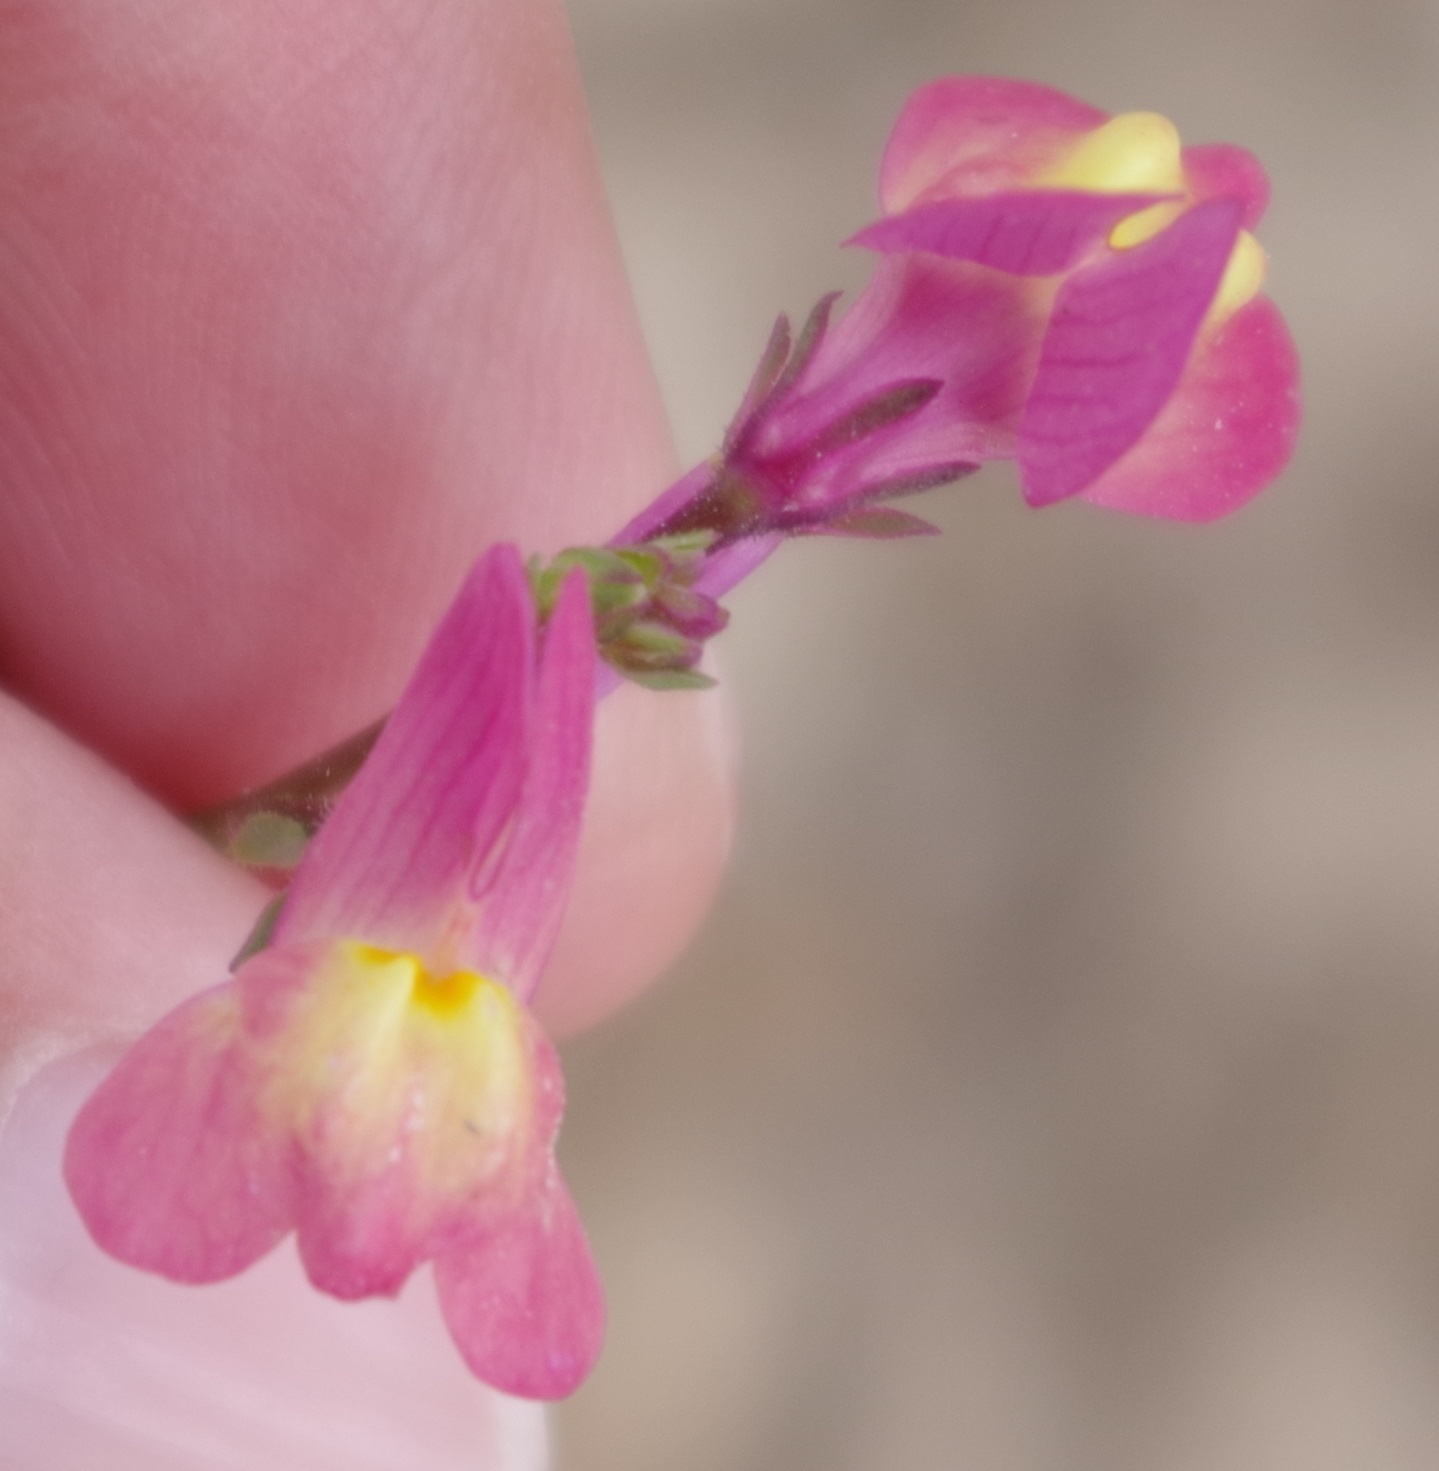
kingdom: Plantae
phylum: Tracheophyta
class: Magnoliopsida
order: Lamiales
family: Plantaginaceae
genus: Linaria
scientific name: Linaria maroccana
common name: Moroccan toadflax
